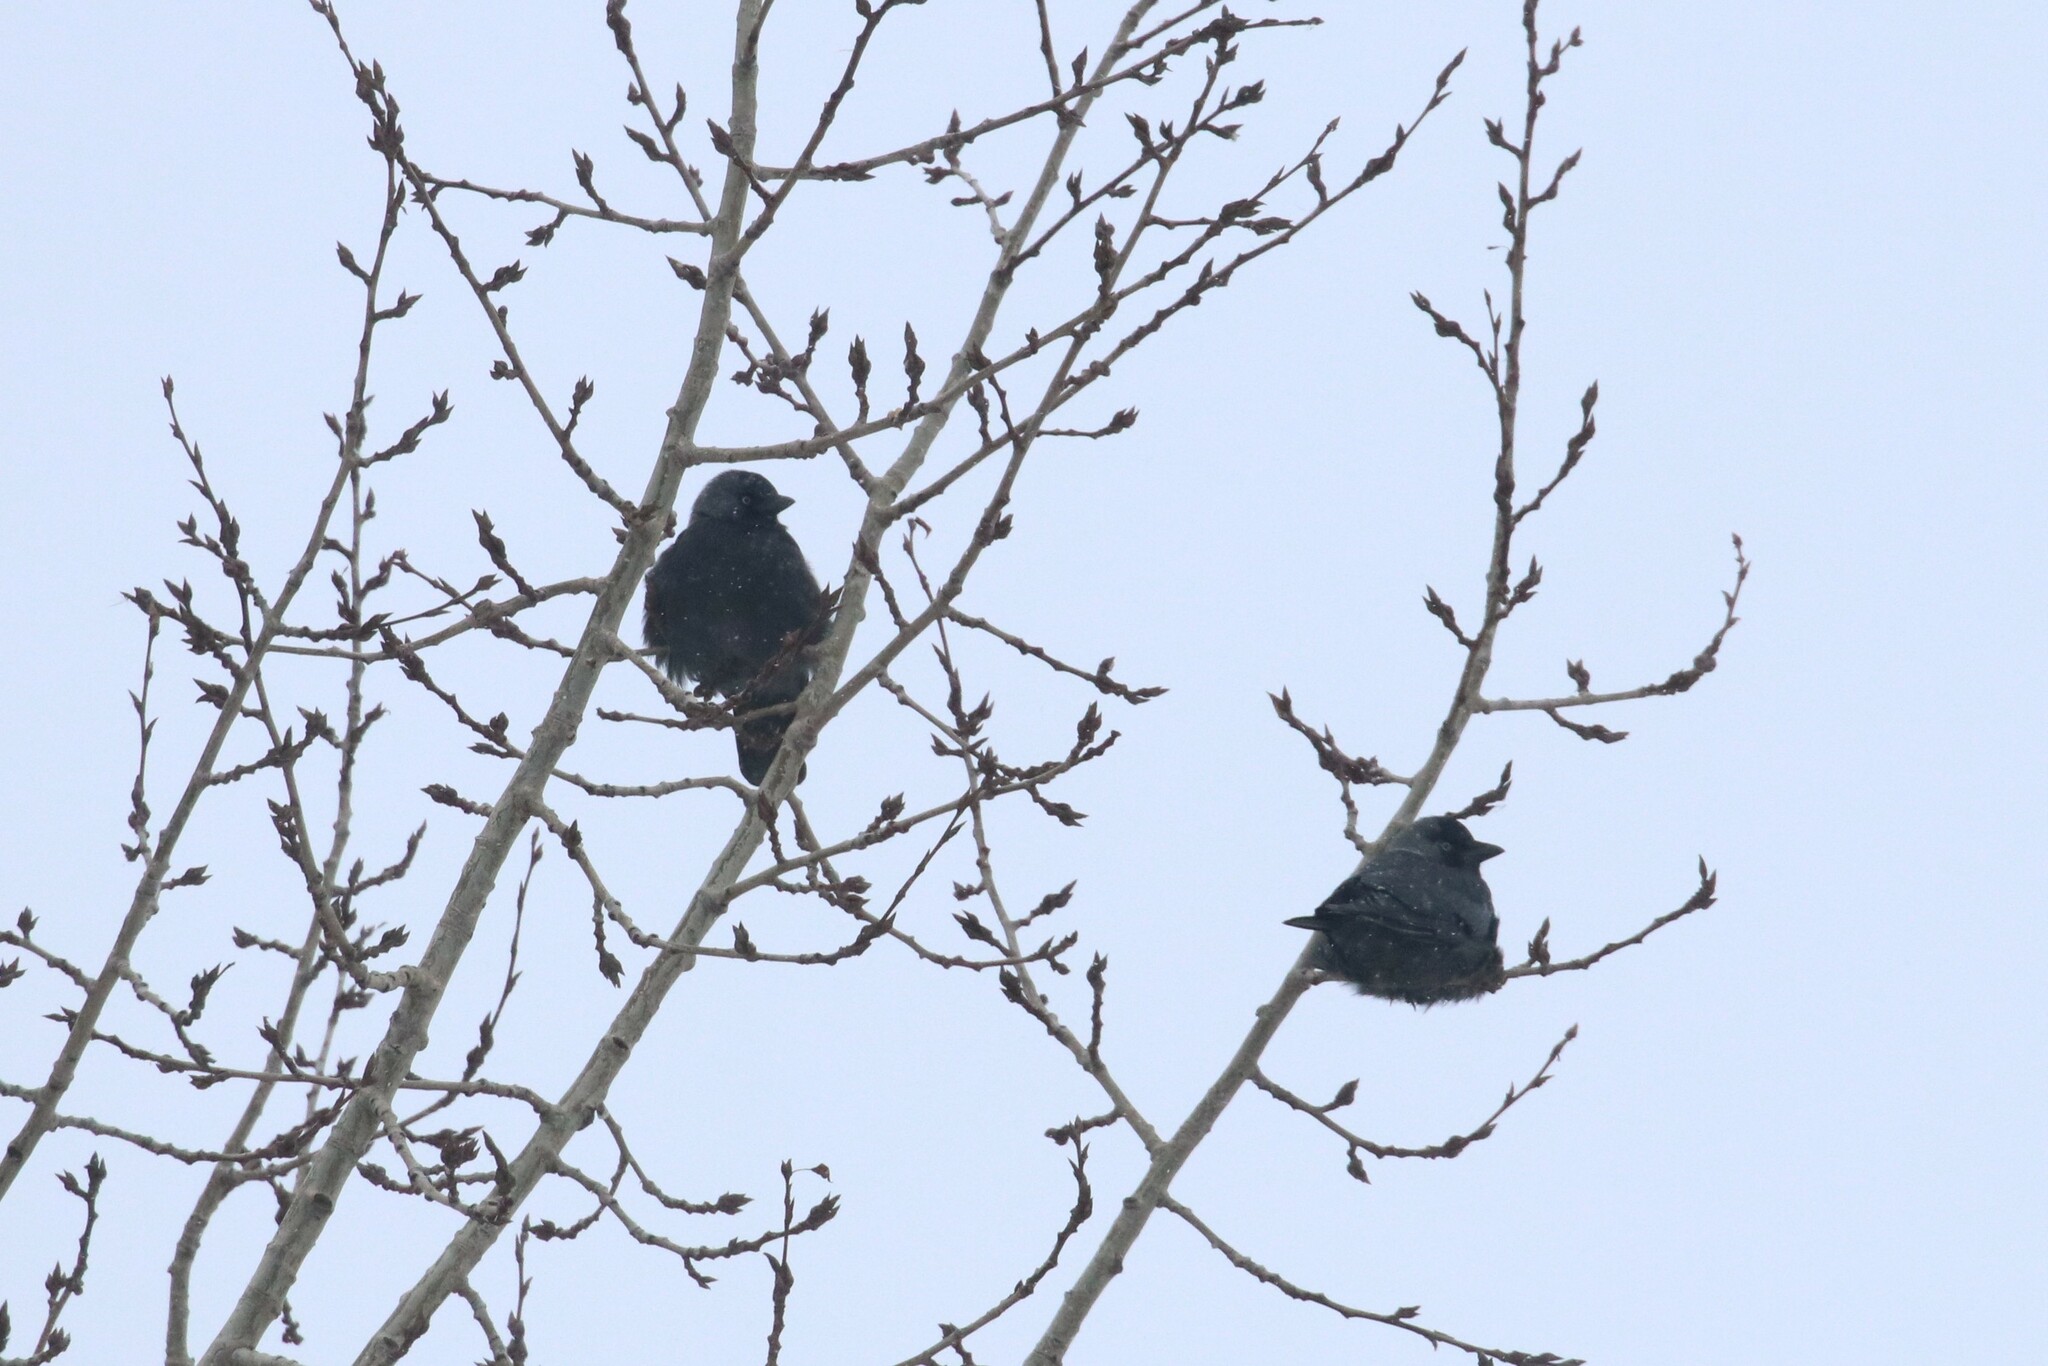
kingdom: Animalia
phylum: Chordata
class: Aves
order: Passeriformes
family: Corvidae
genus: Coloeus
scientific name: Coloeus monedula
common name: Western jackdaw
